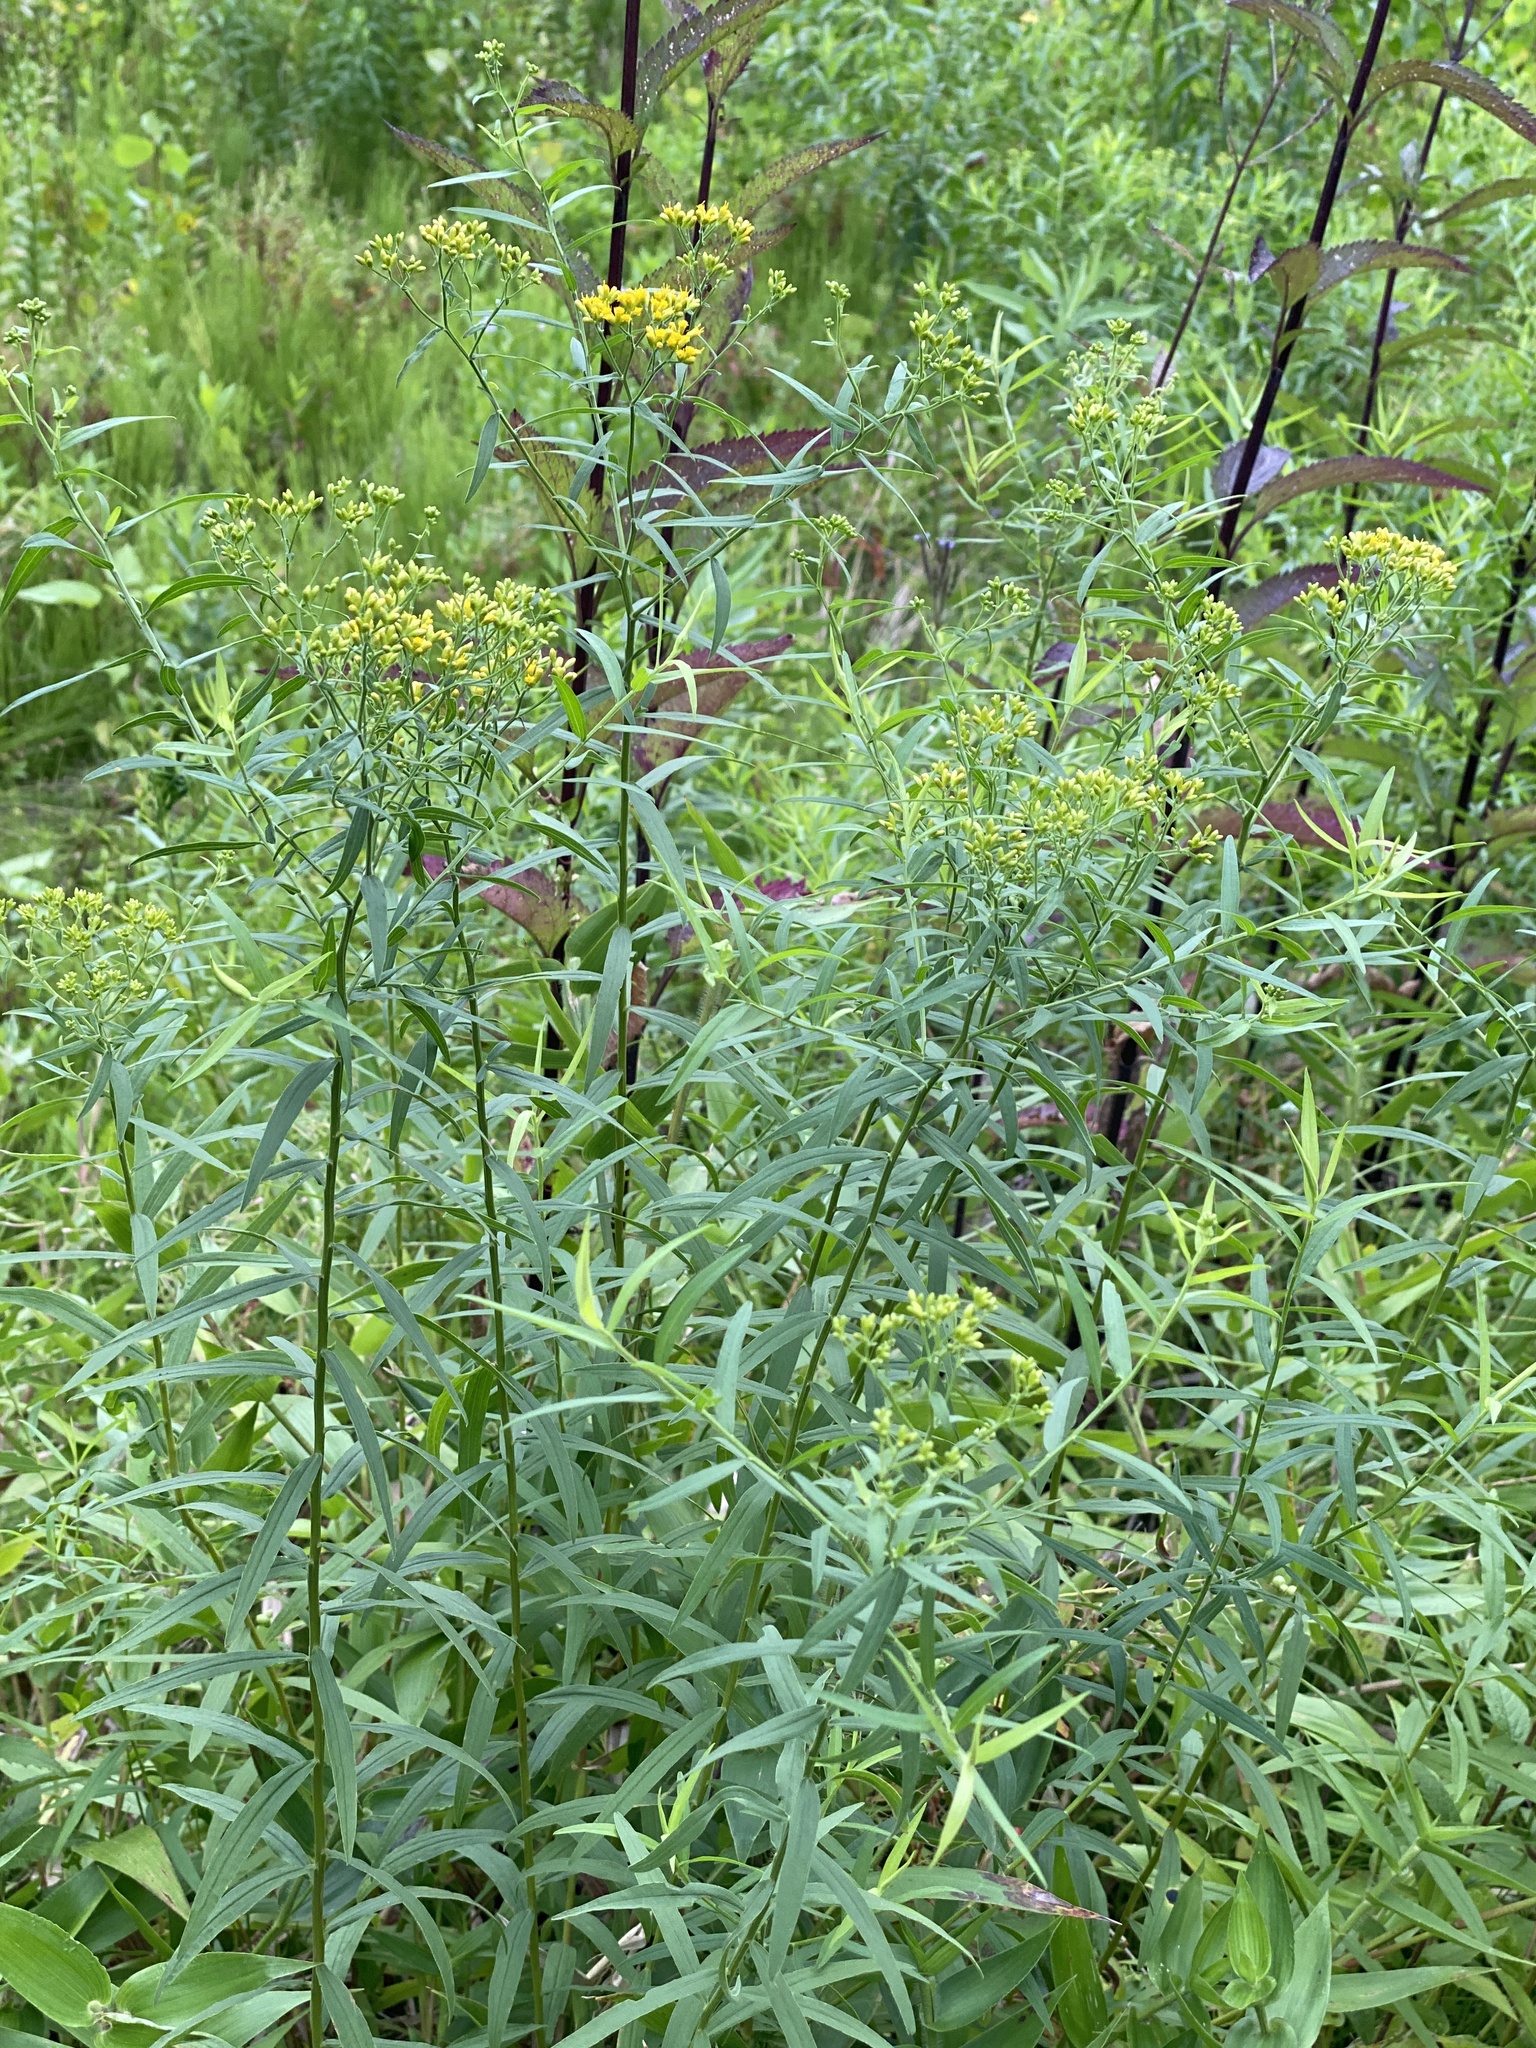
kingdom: Plantae
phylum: Tracheophyta
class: Magnoliopsida
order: Asterales
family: Asteraceae
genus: Euthamia
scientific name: Euthamia graminifolia
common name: Common goldentop
